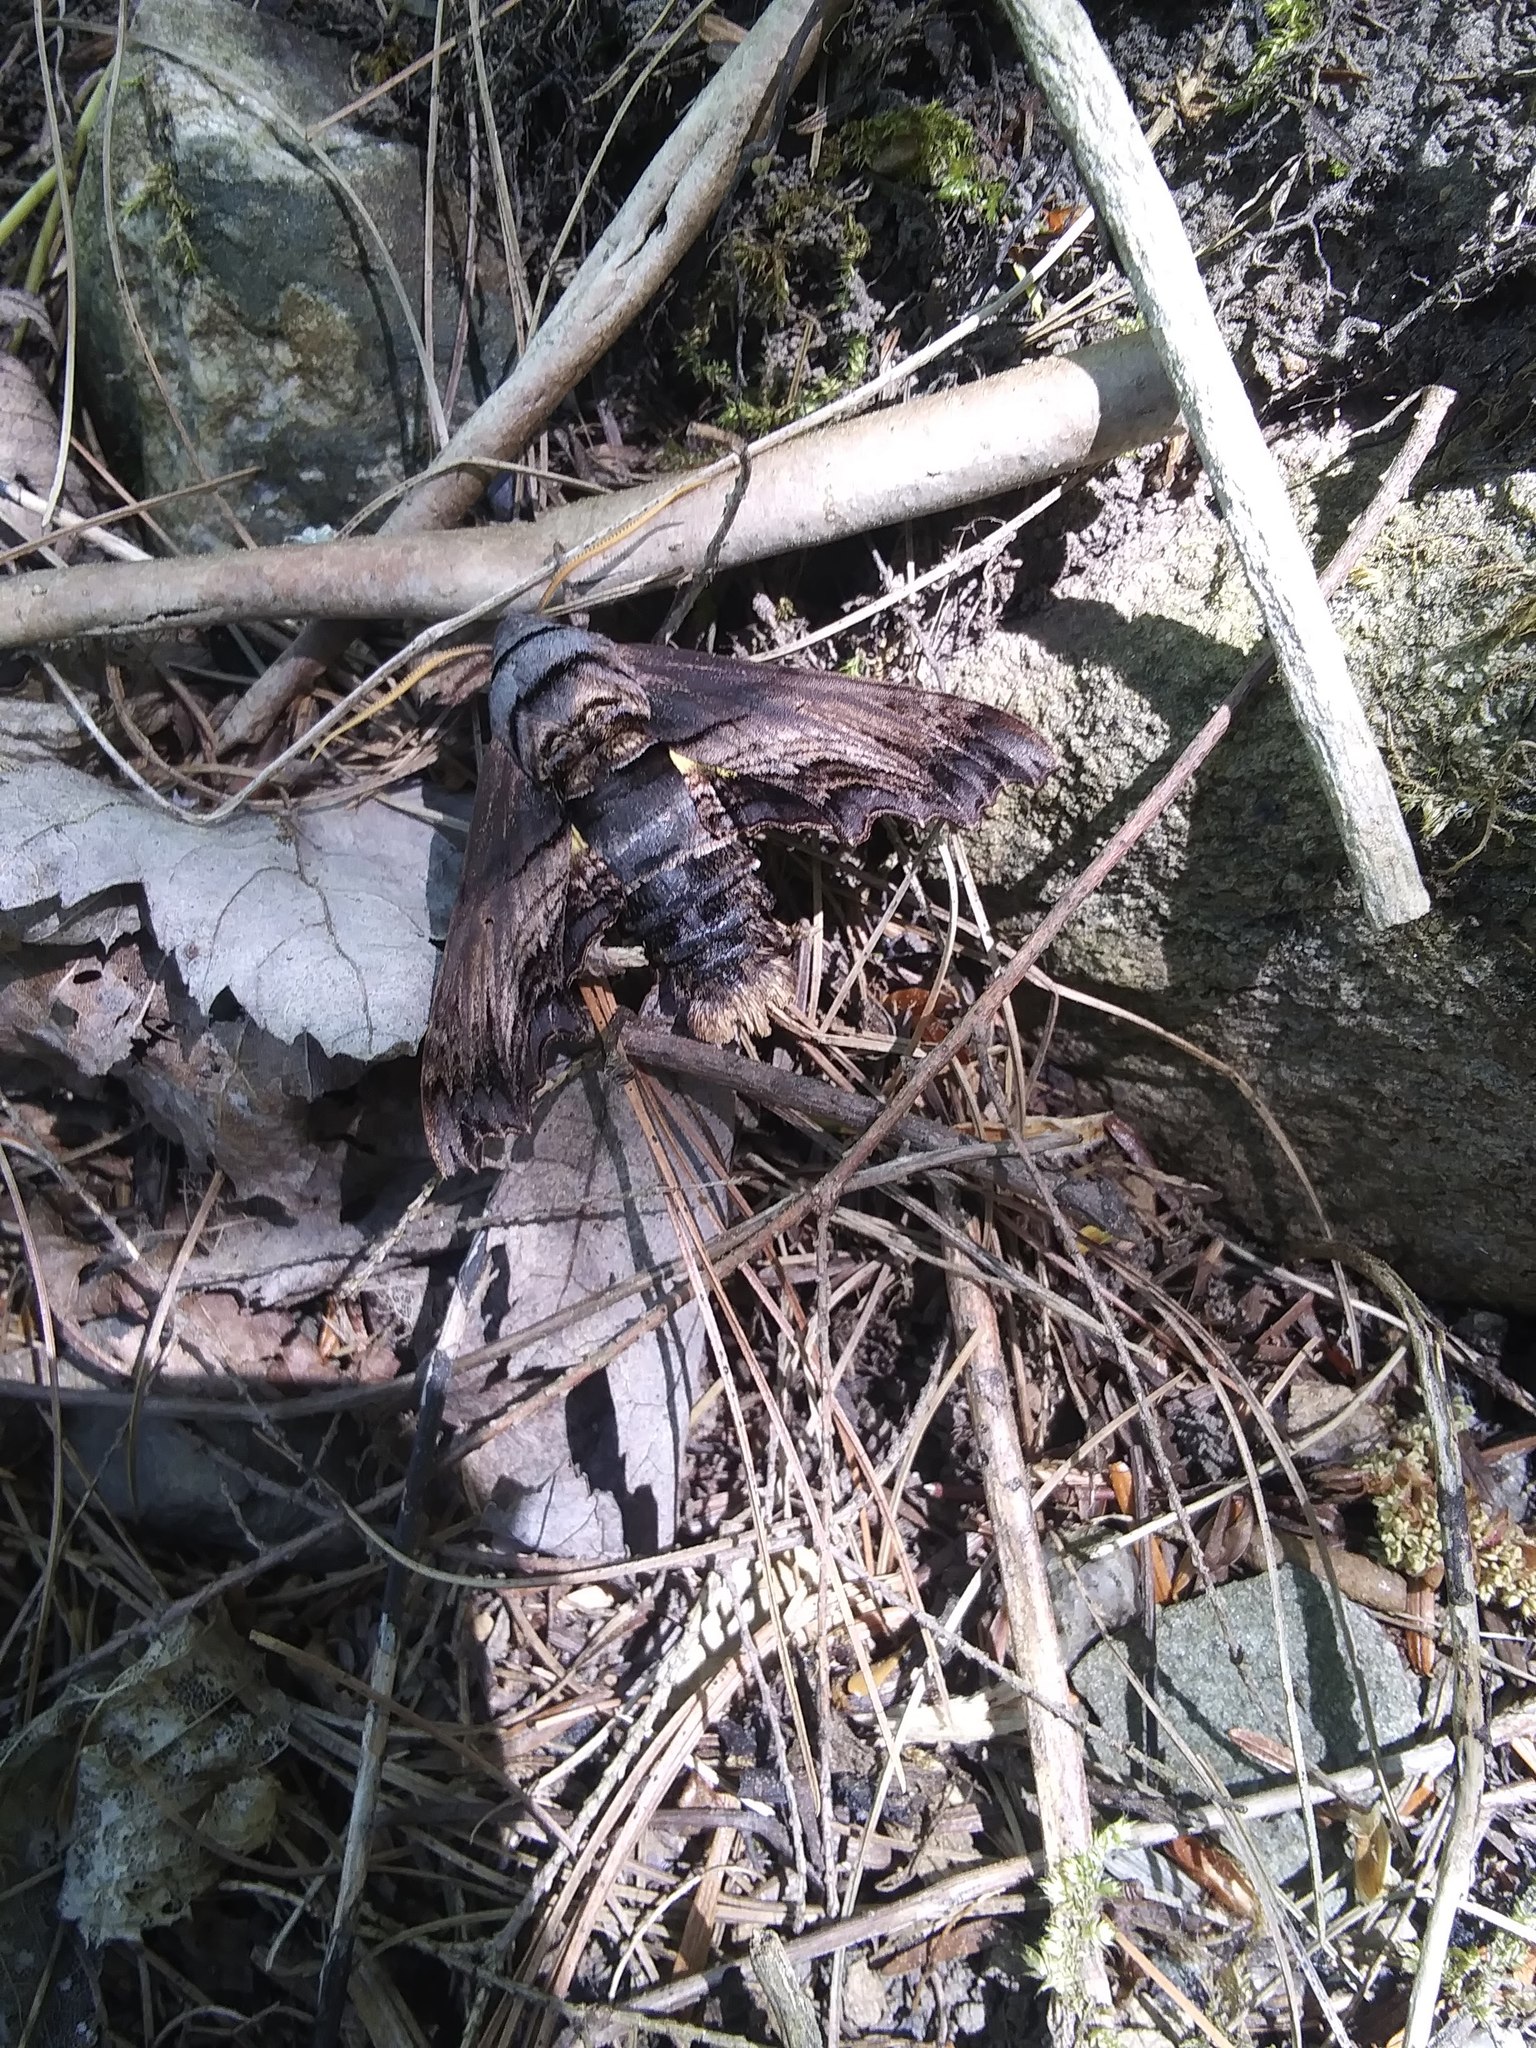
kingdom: Animalia
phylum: Arthropoda
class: Insecta
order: Lepidoptera
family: Sphingidae
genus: Sphecodina
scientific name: Sphecodina abbottii
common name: Abbott's sphinx
